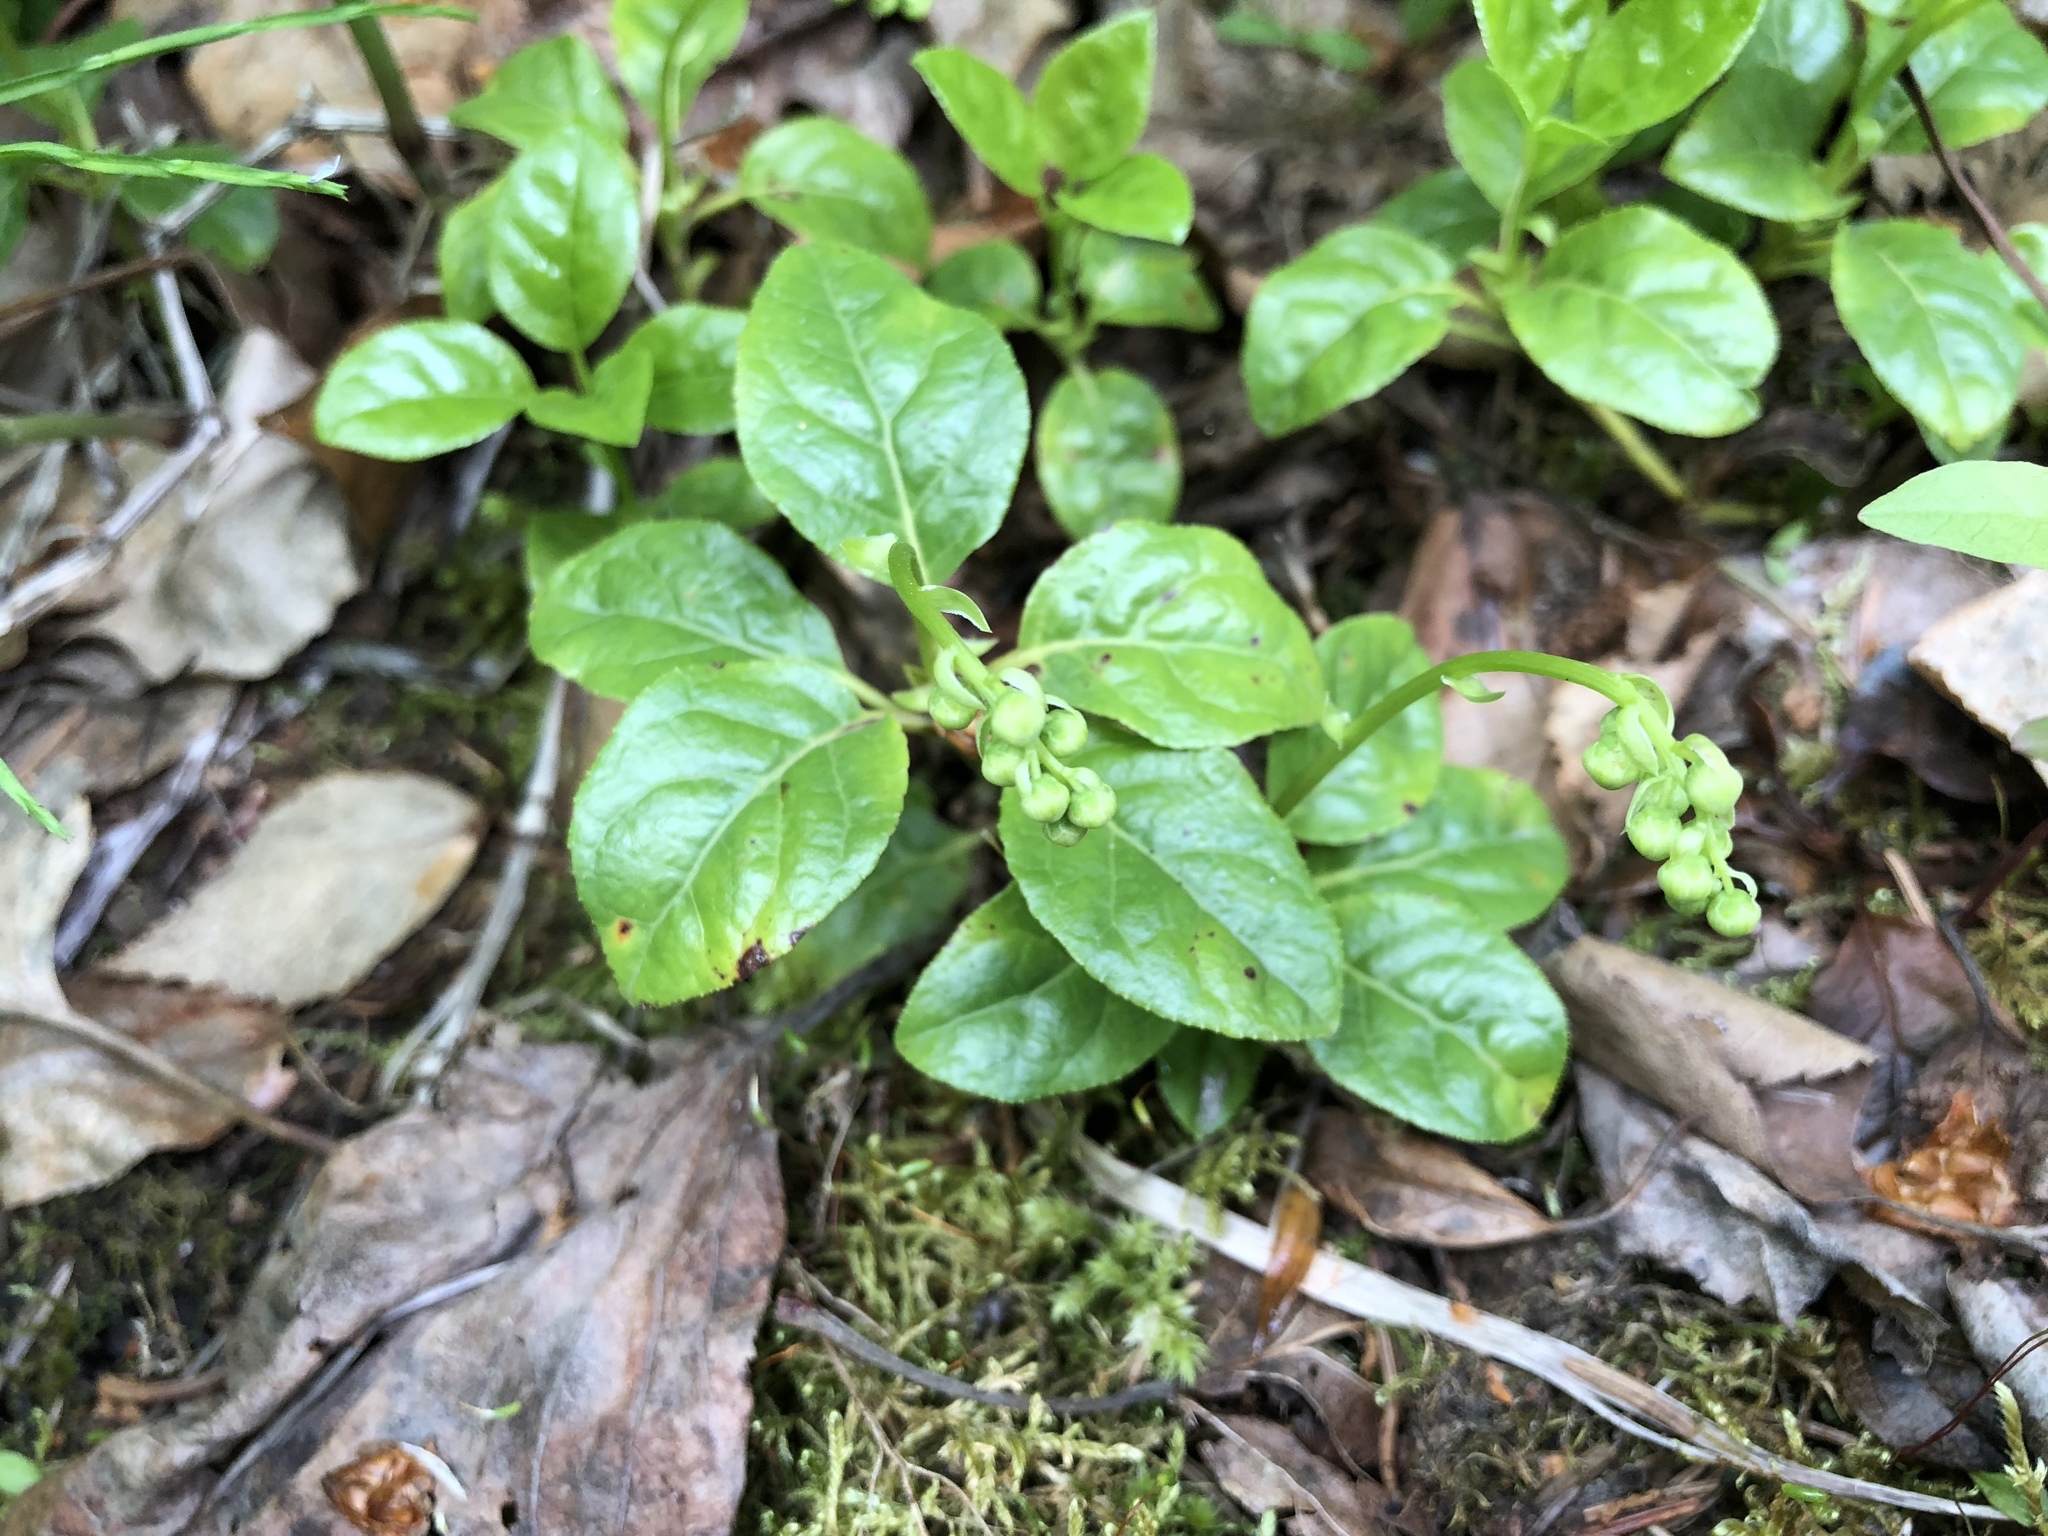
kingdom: Plantae
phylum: Tracheophyta
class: Magnoliopsida
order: Ericales
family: Ericaceae
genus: Orthilia
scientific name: Orthilia secunda
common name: One-sided orthilia
